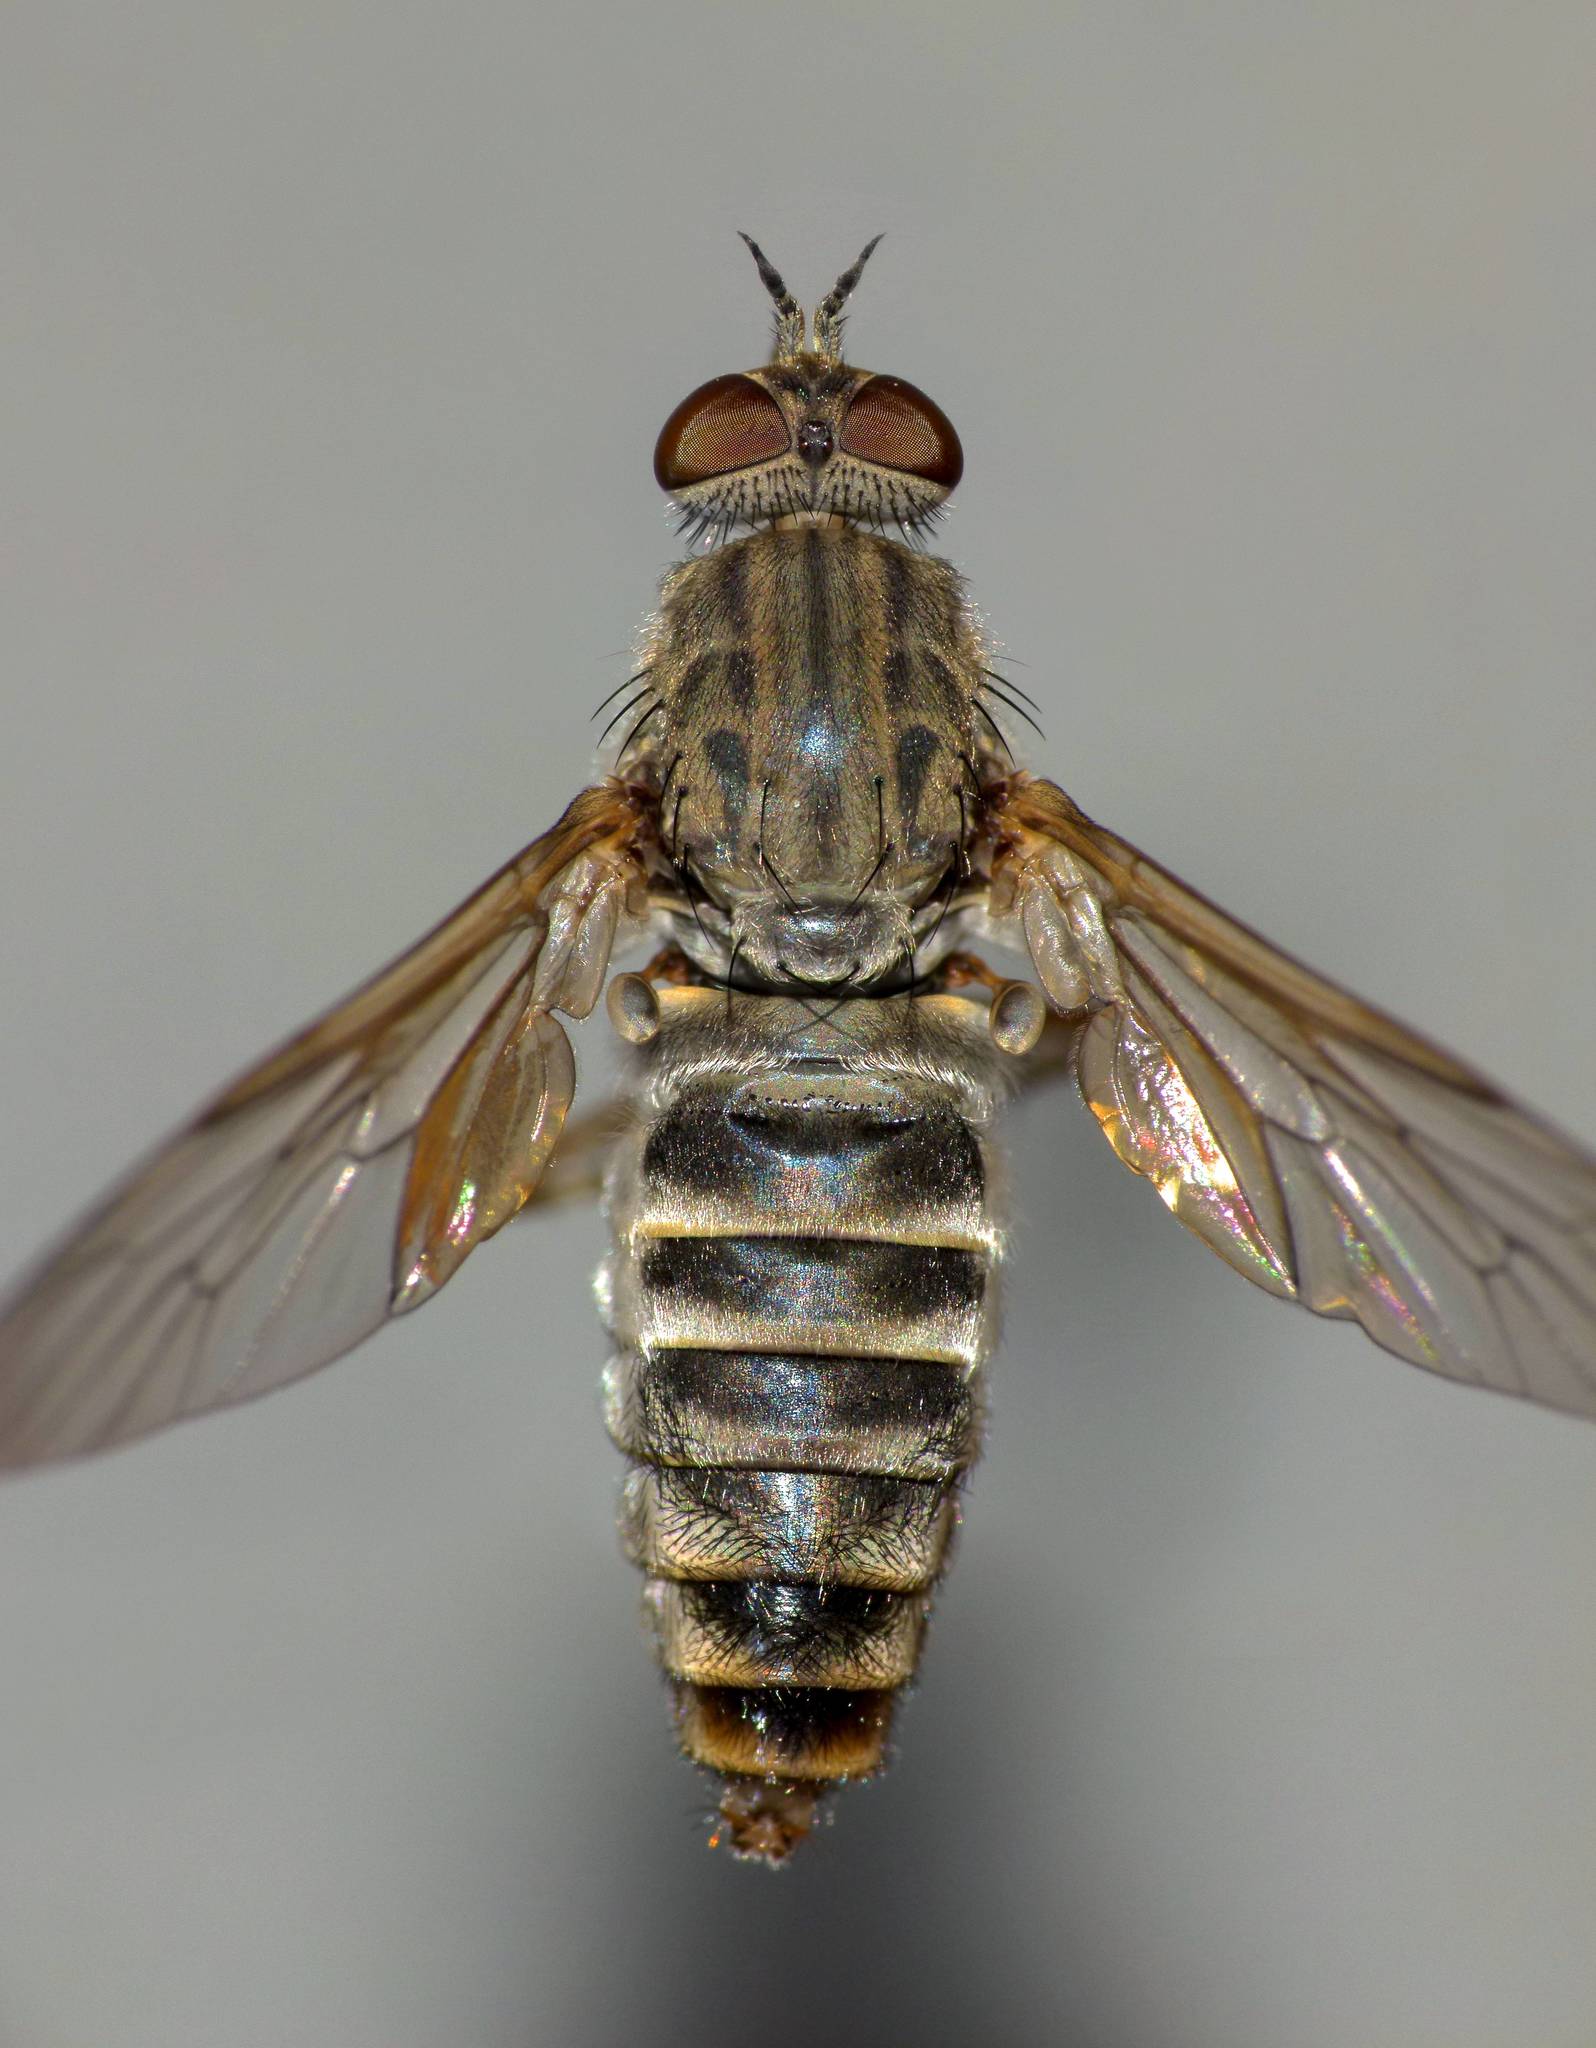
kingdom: Animalia
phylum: Arthropoda
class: Insecta
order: Diptera
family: Therevidae
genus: Anabarhynchus
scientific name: Anabarhynchus ruficoxa
